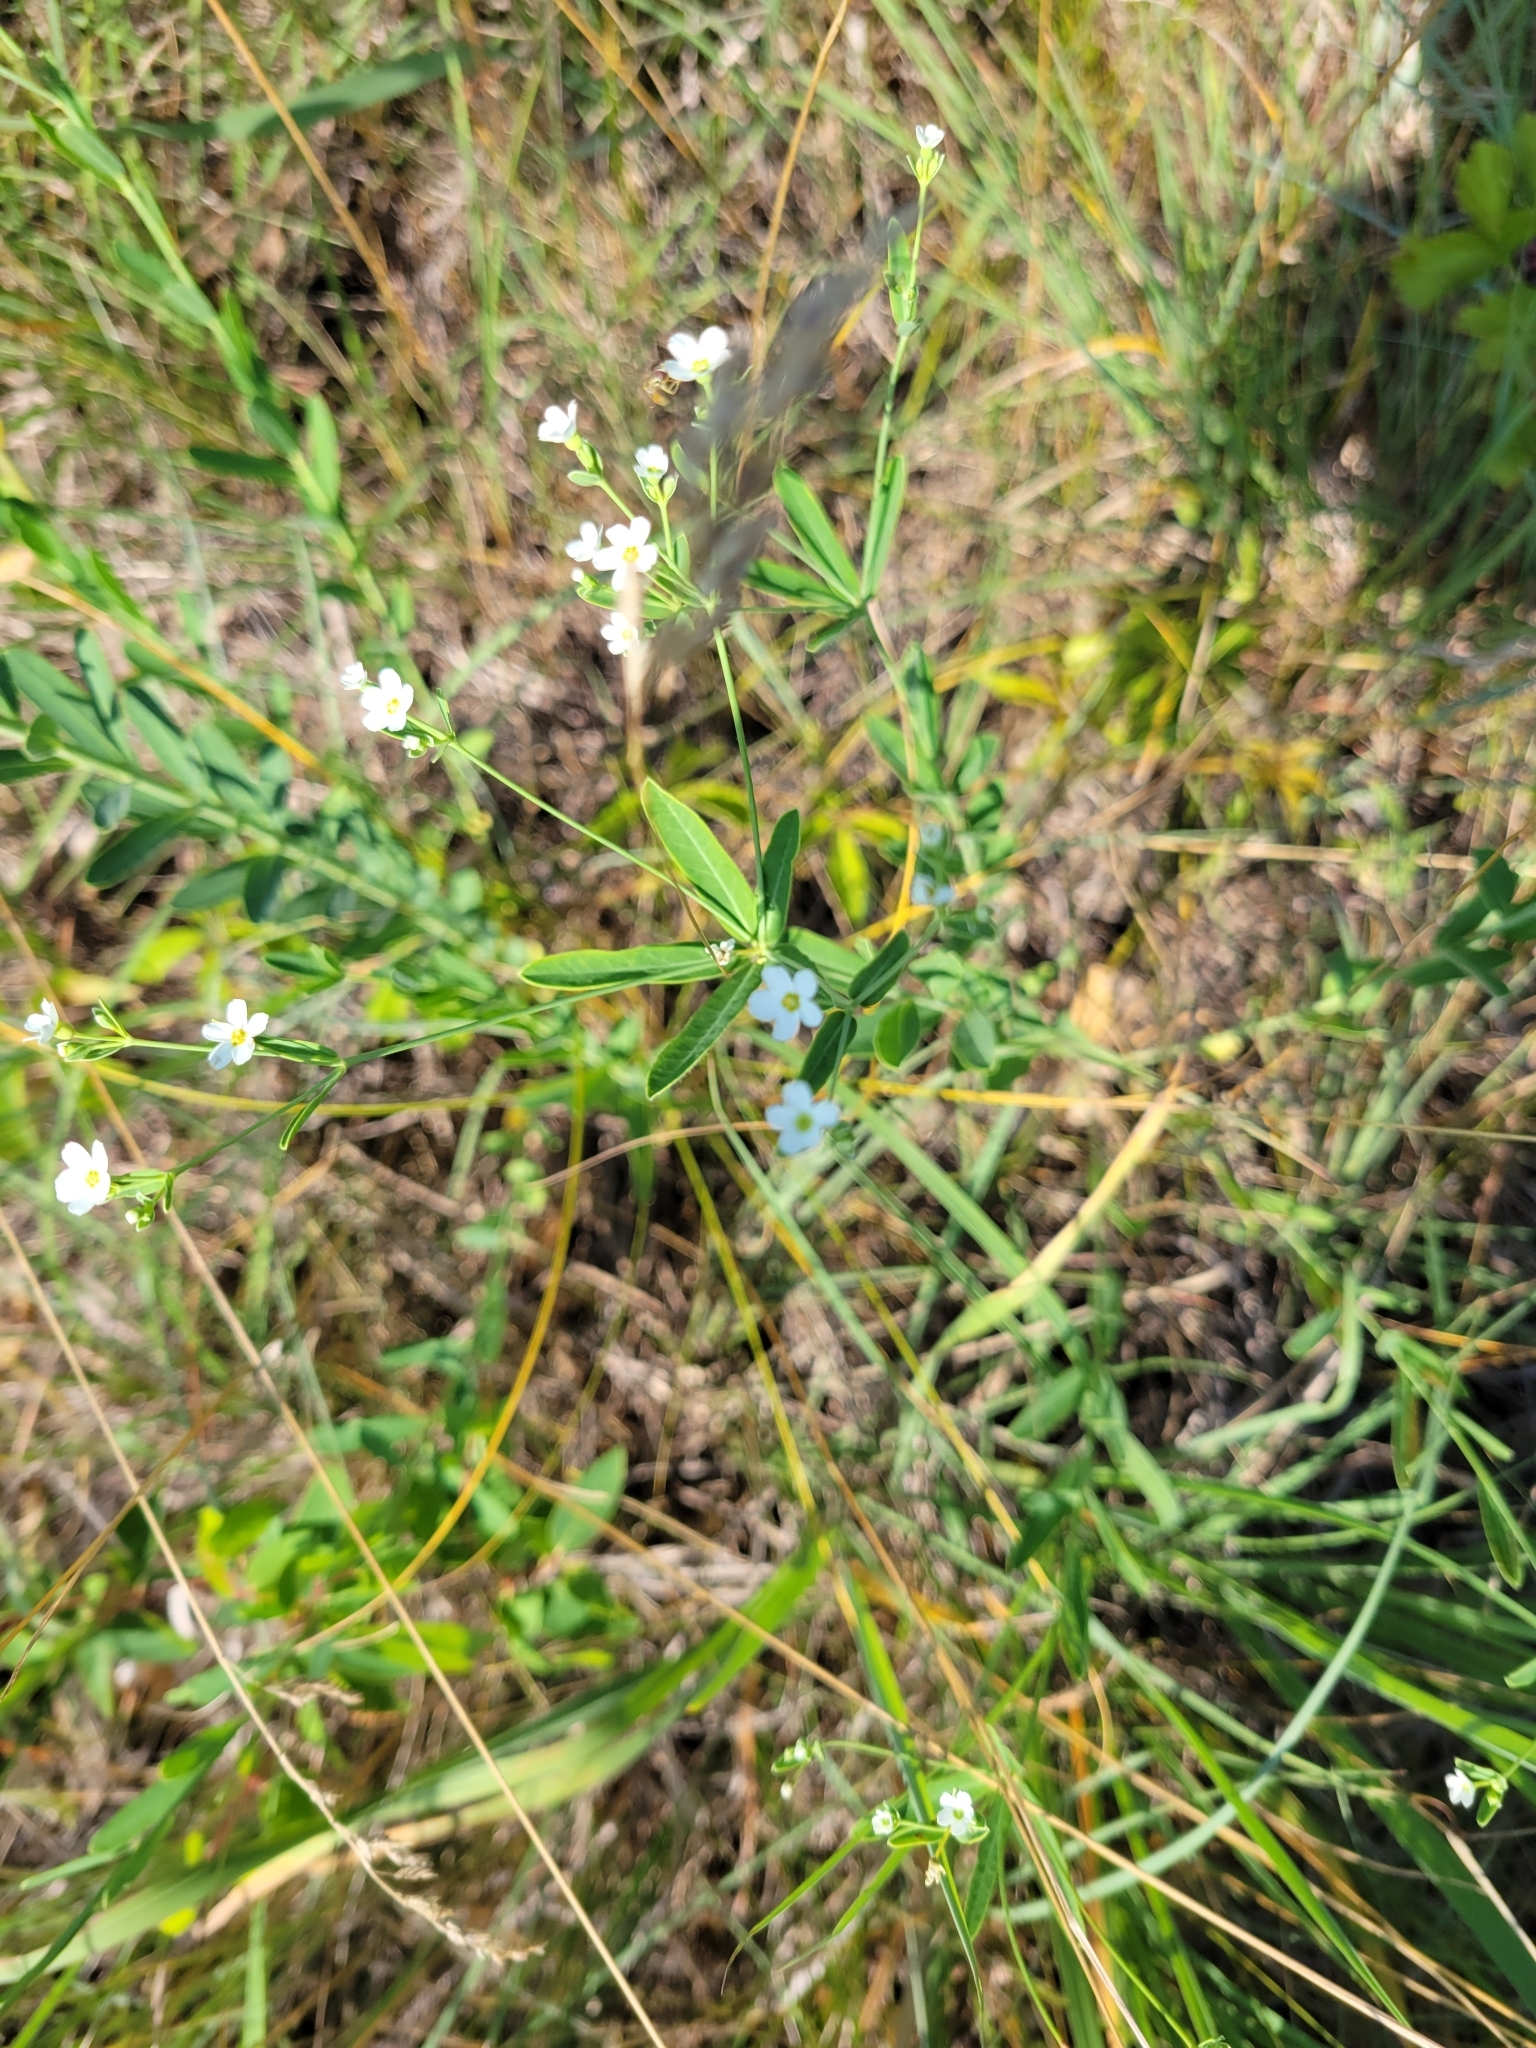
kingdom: Plantae
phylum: Tracheophyta
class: Magnoliopsida
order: Malpighiales
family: Euphorbiaceae
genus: Euphorbia
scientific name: Euphorbia corollata
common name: Flowering spurge
